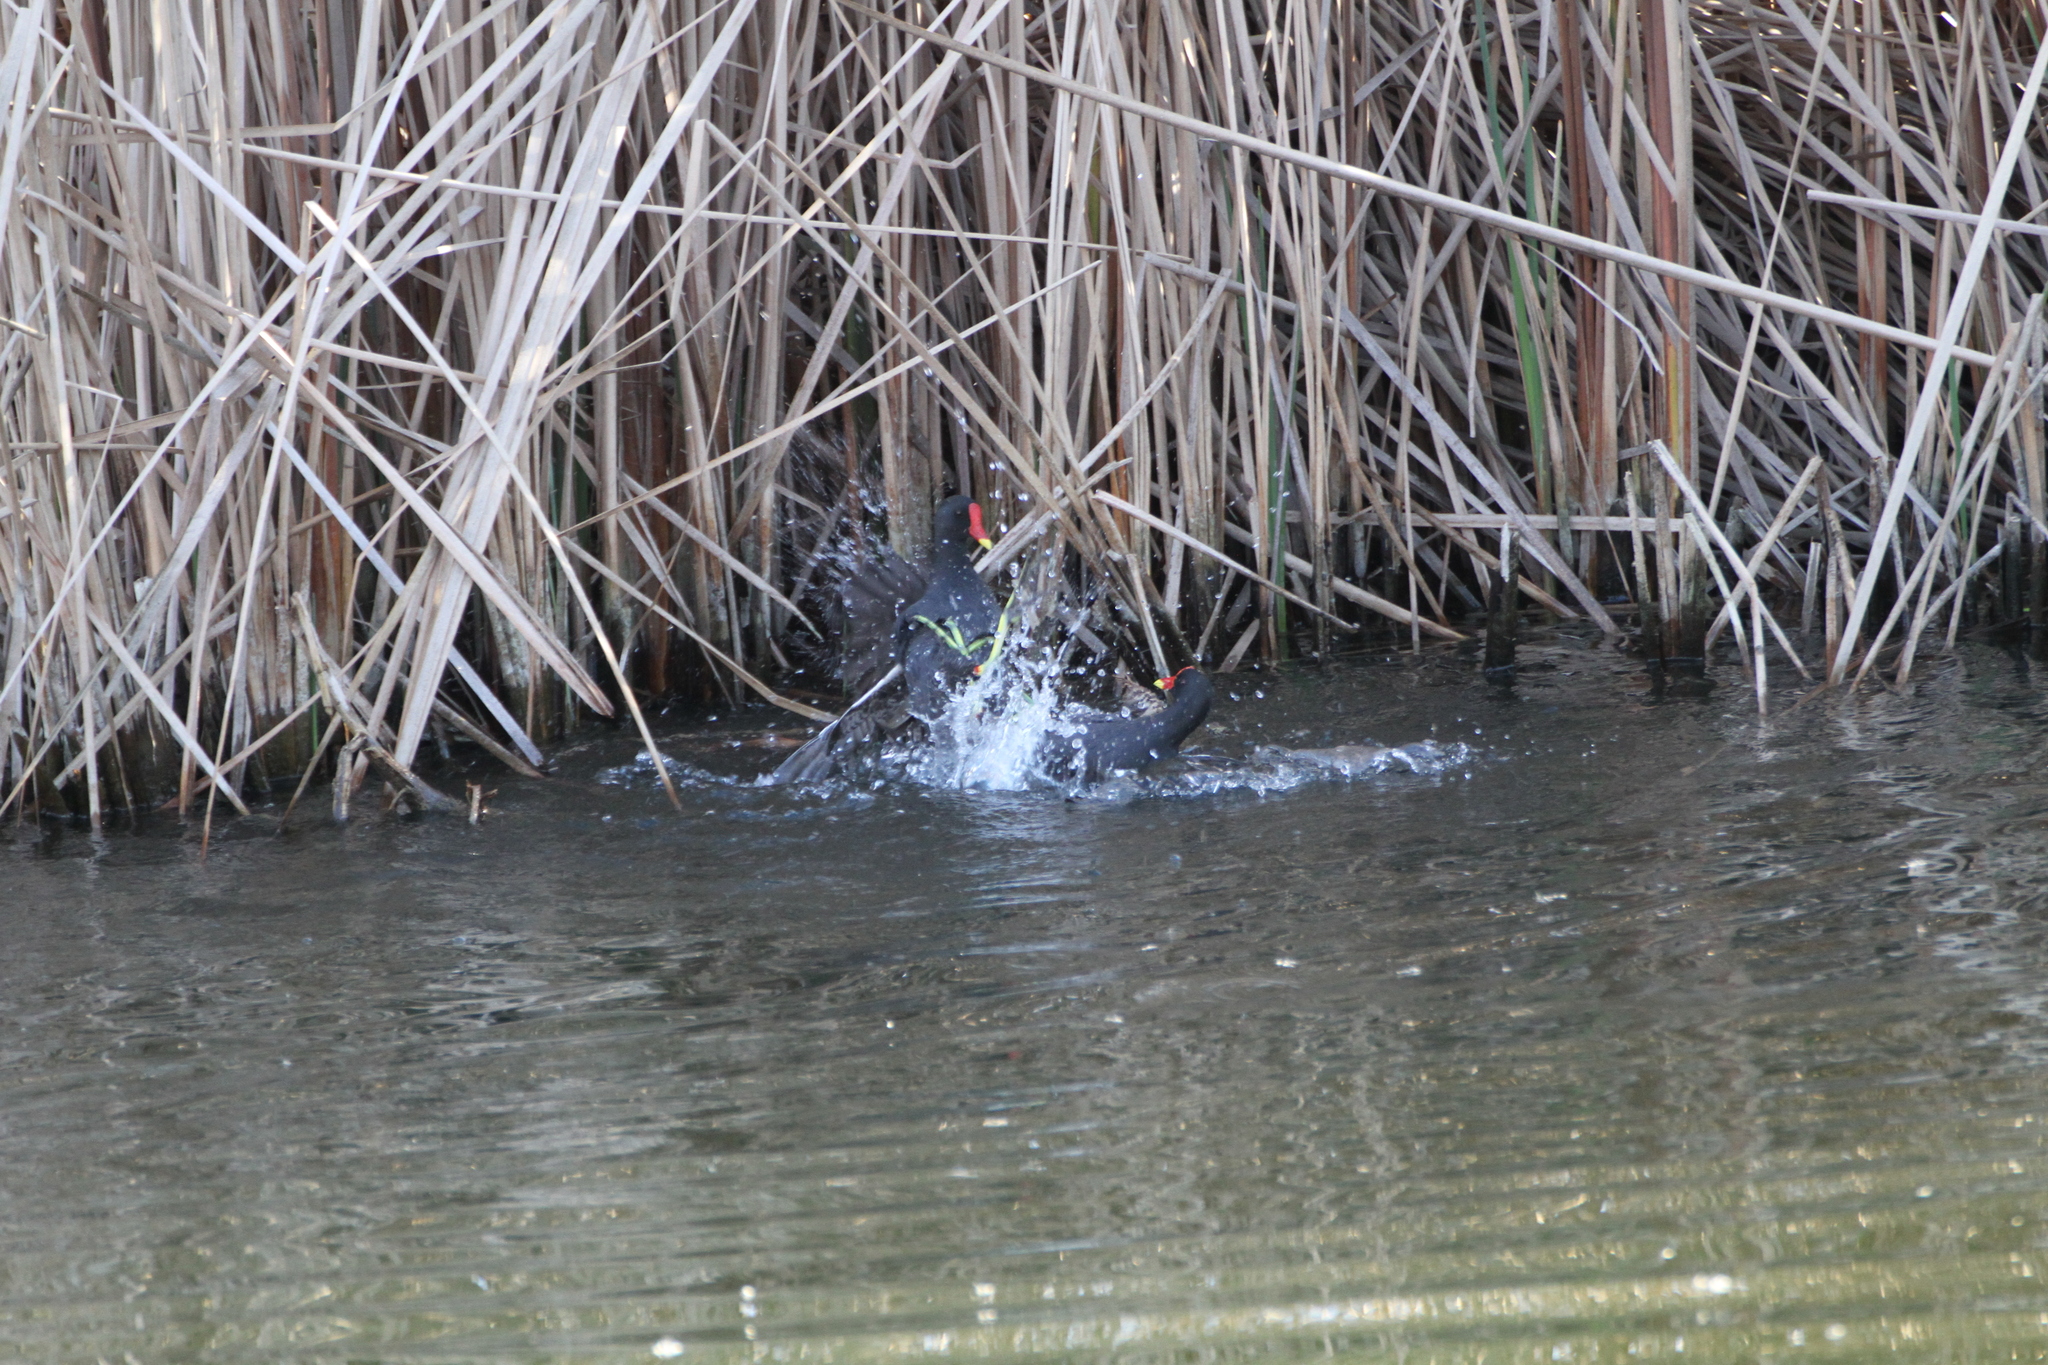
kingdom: Animalia
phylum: Chordata
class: Aves
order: Gruiformes
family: Rallidae
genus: Gallinula
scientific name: Gallinula chloropus
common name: Common moorhen
